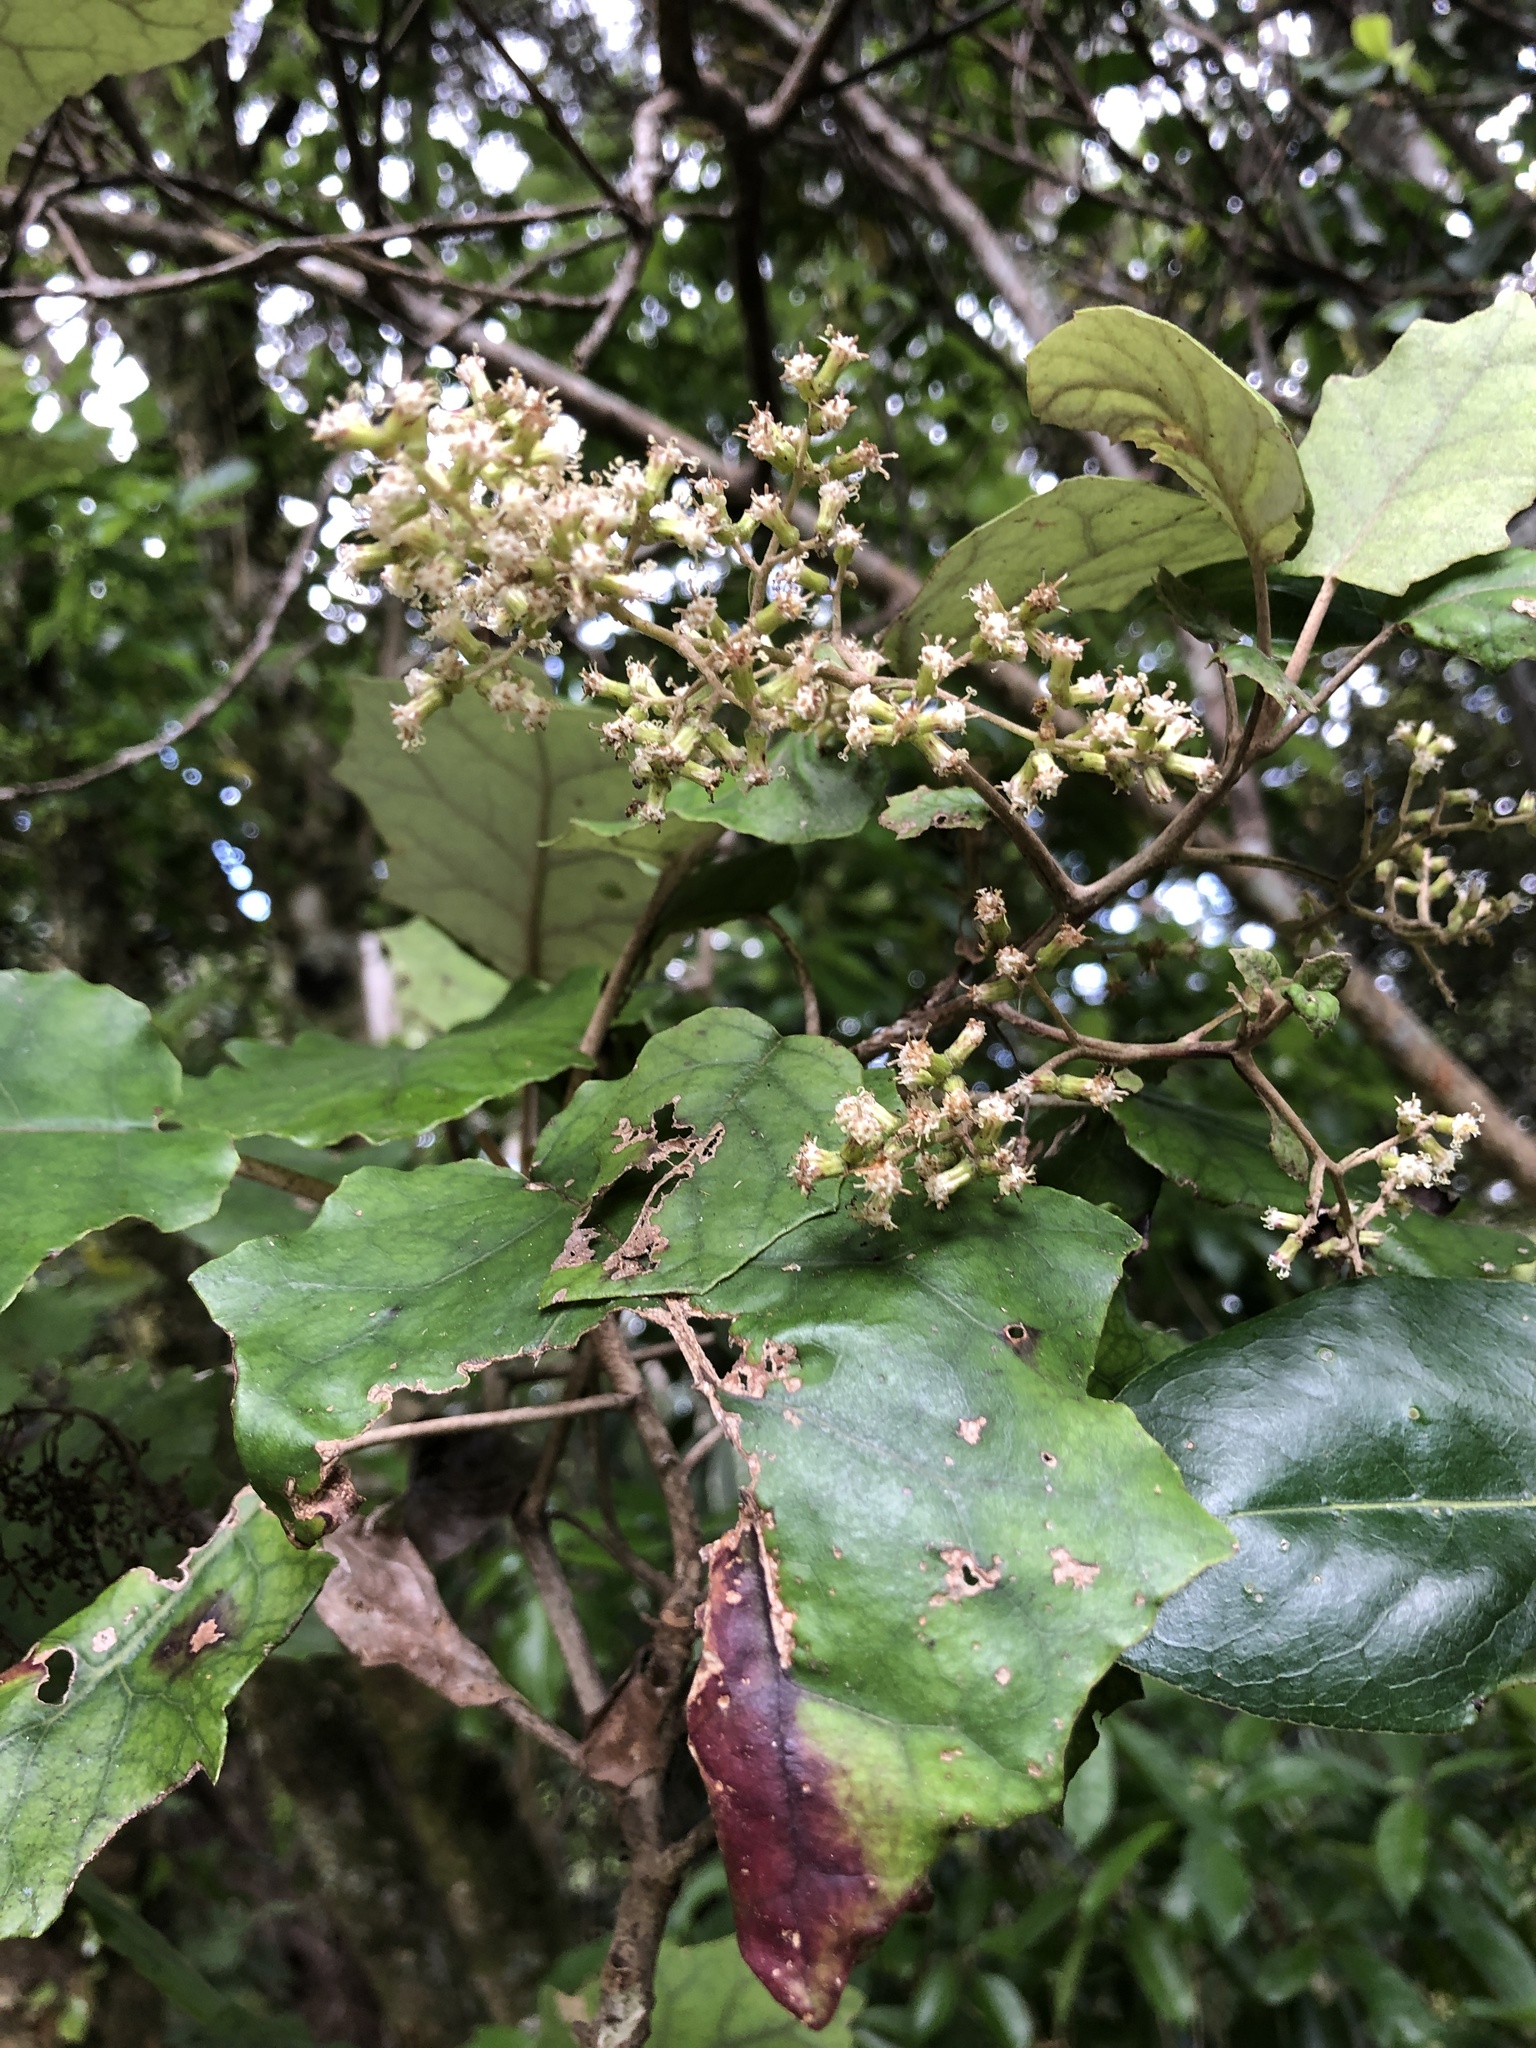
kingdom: Plantae
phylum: Tracheophyta
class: Magnoliopsida
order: Asterales
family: Asteraceae
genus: Brachyglottis
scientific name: Brachyglottis repanda
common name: Hedge ragwort
